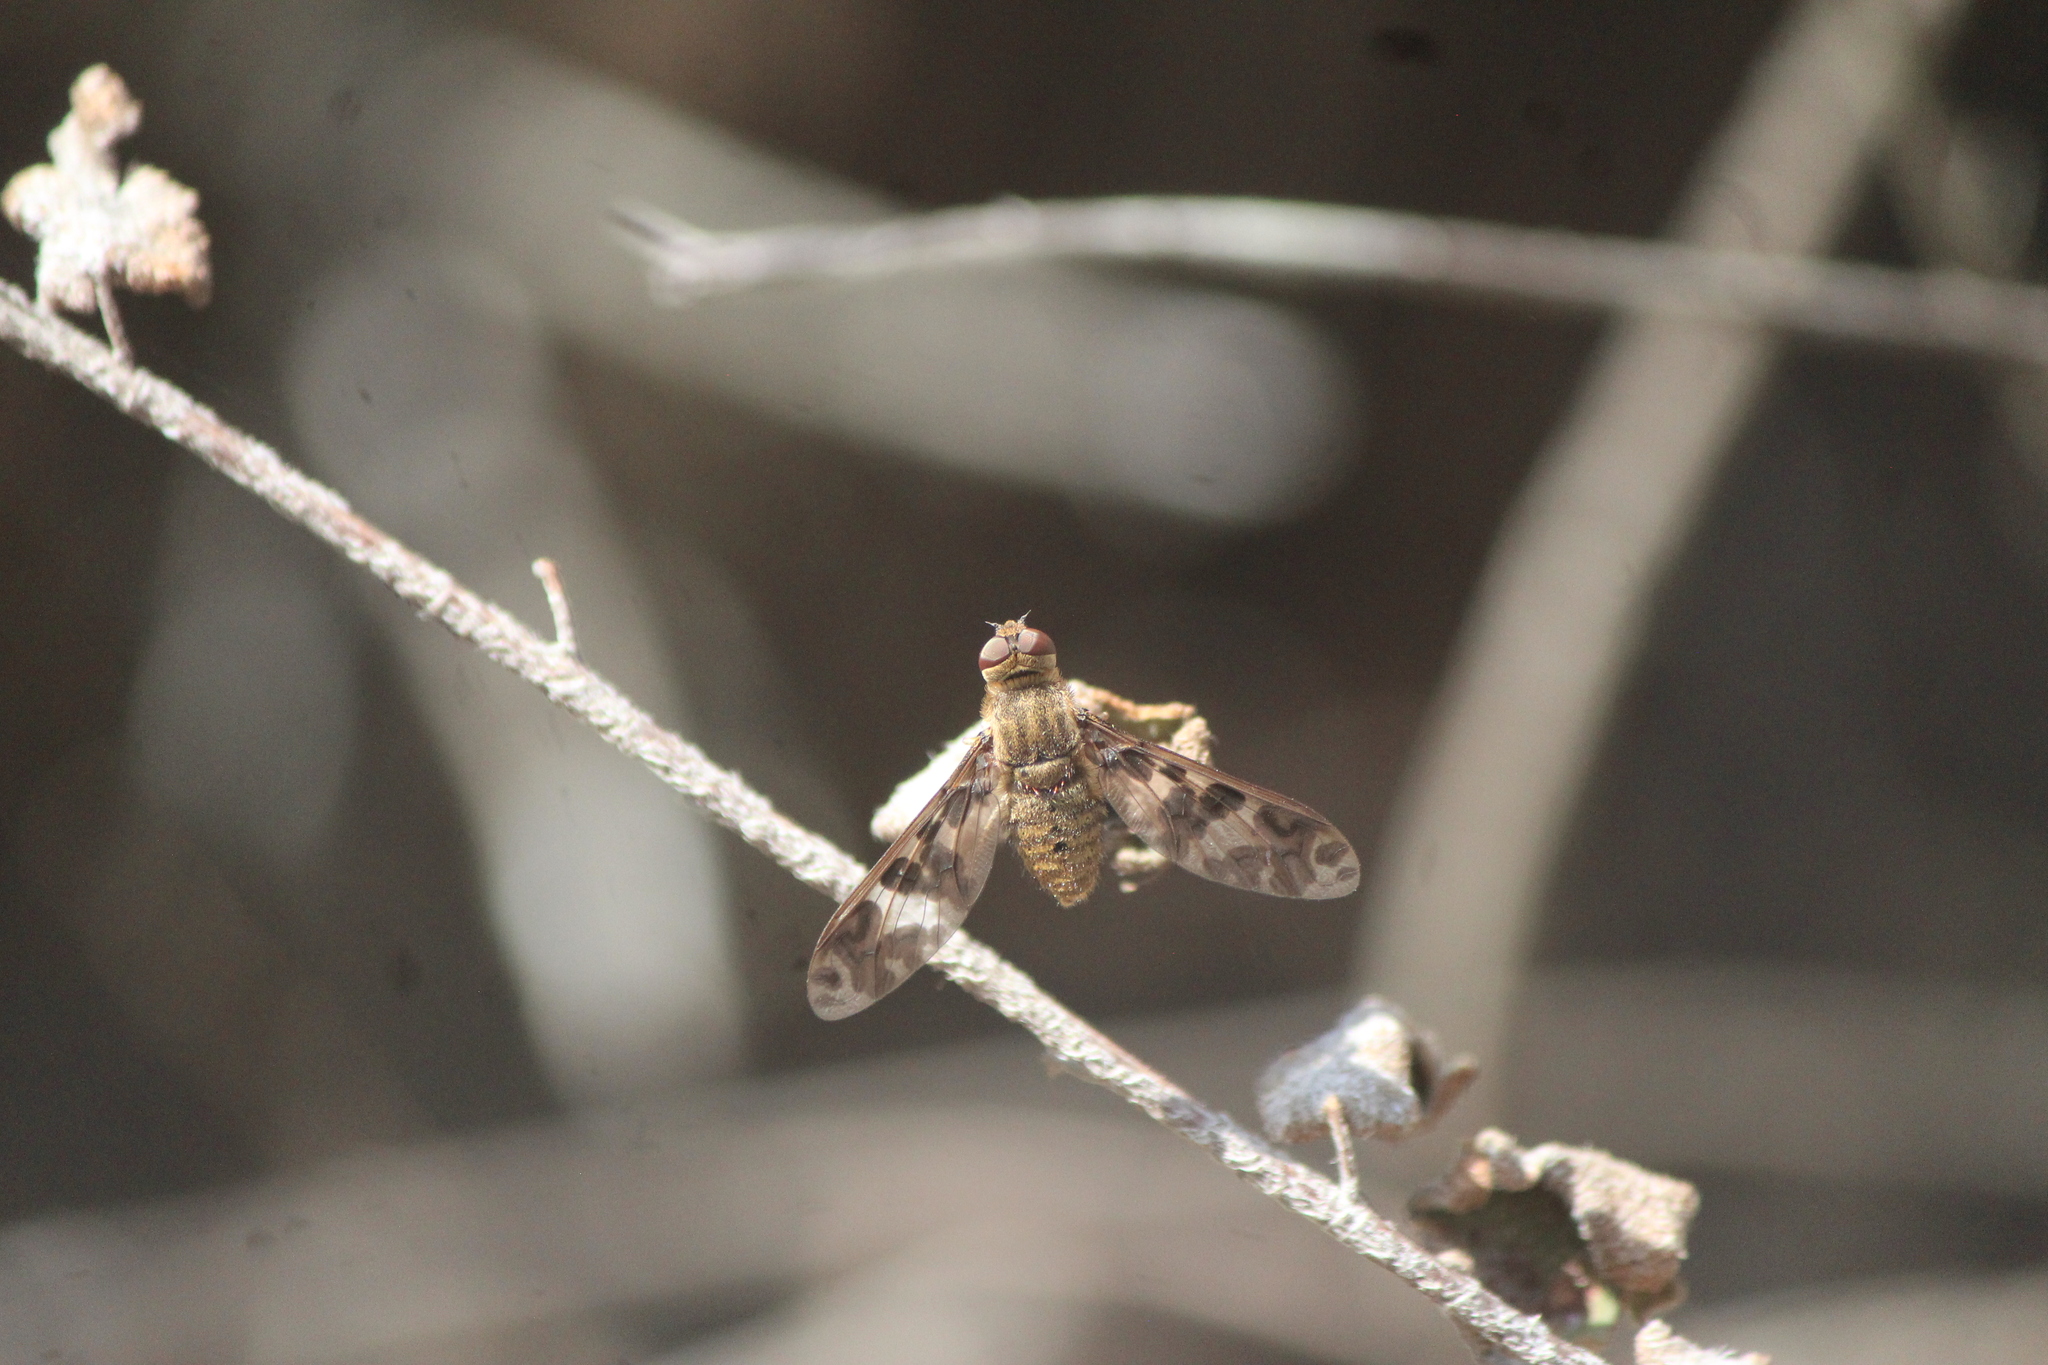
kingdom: Animalia
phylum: Arthropoda
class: Insecta
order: Diptera
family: Bombyliidae
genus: Dipalta
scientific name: Dipalta serpentina
